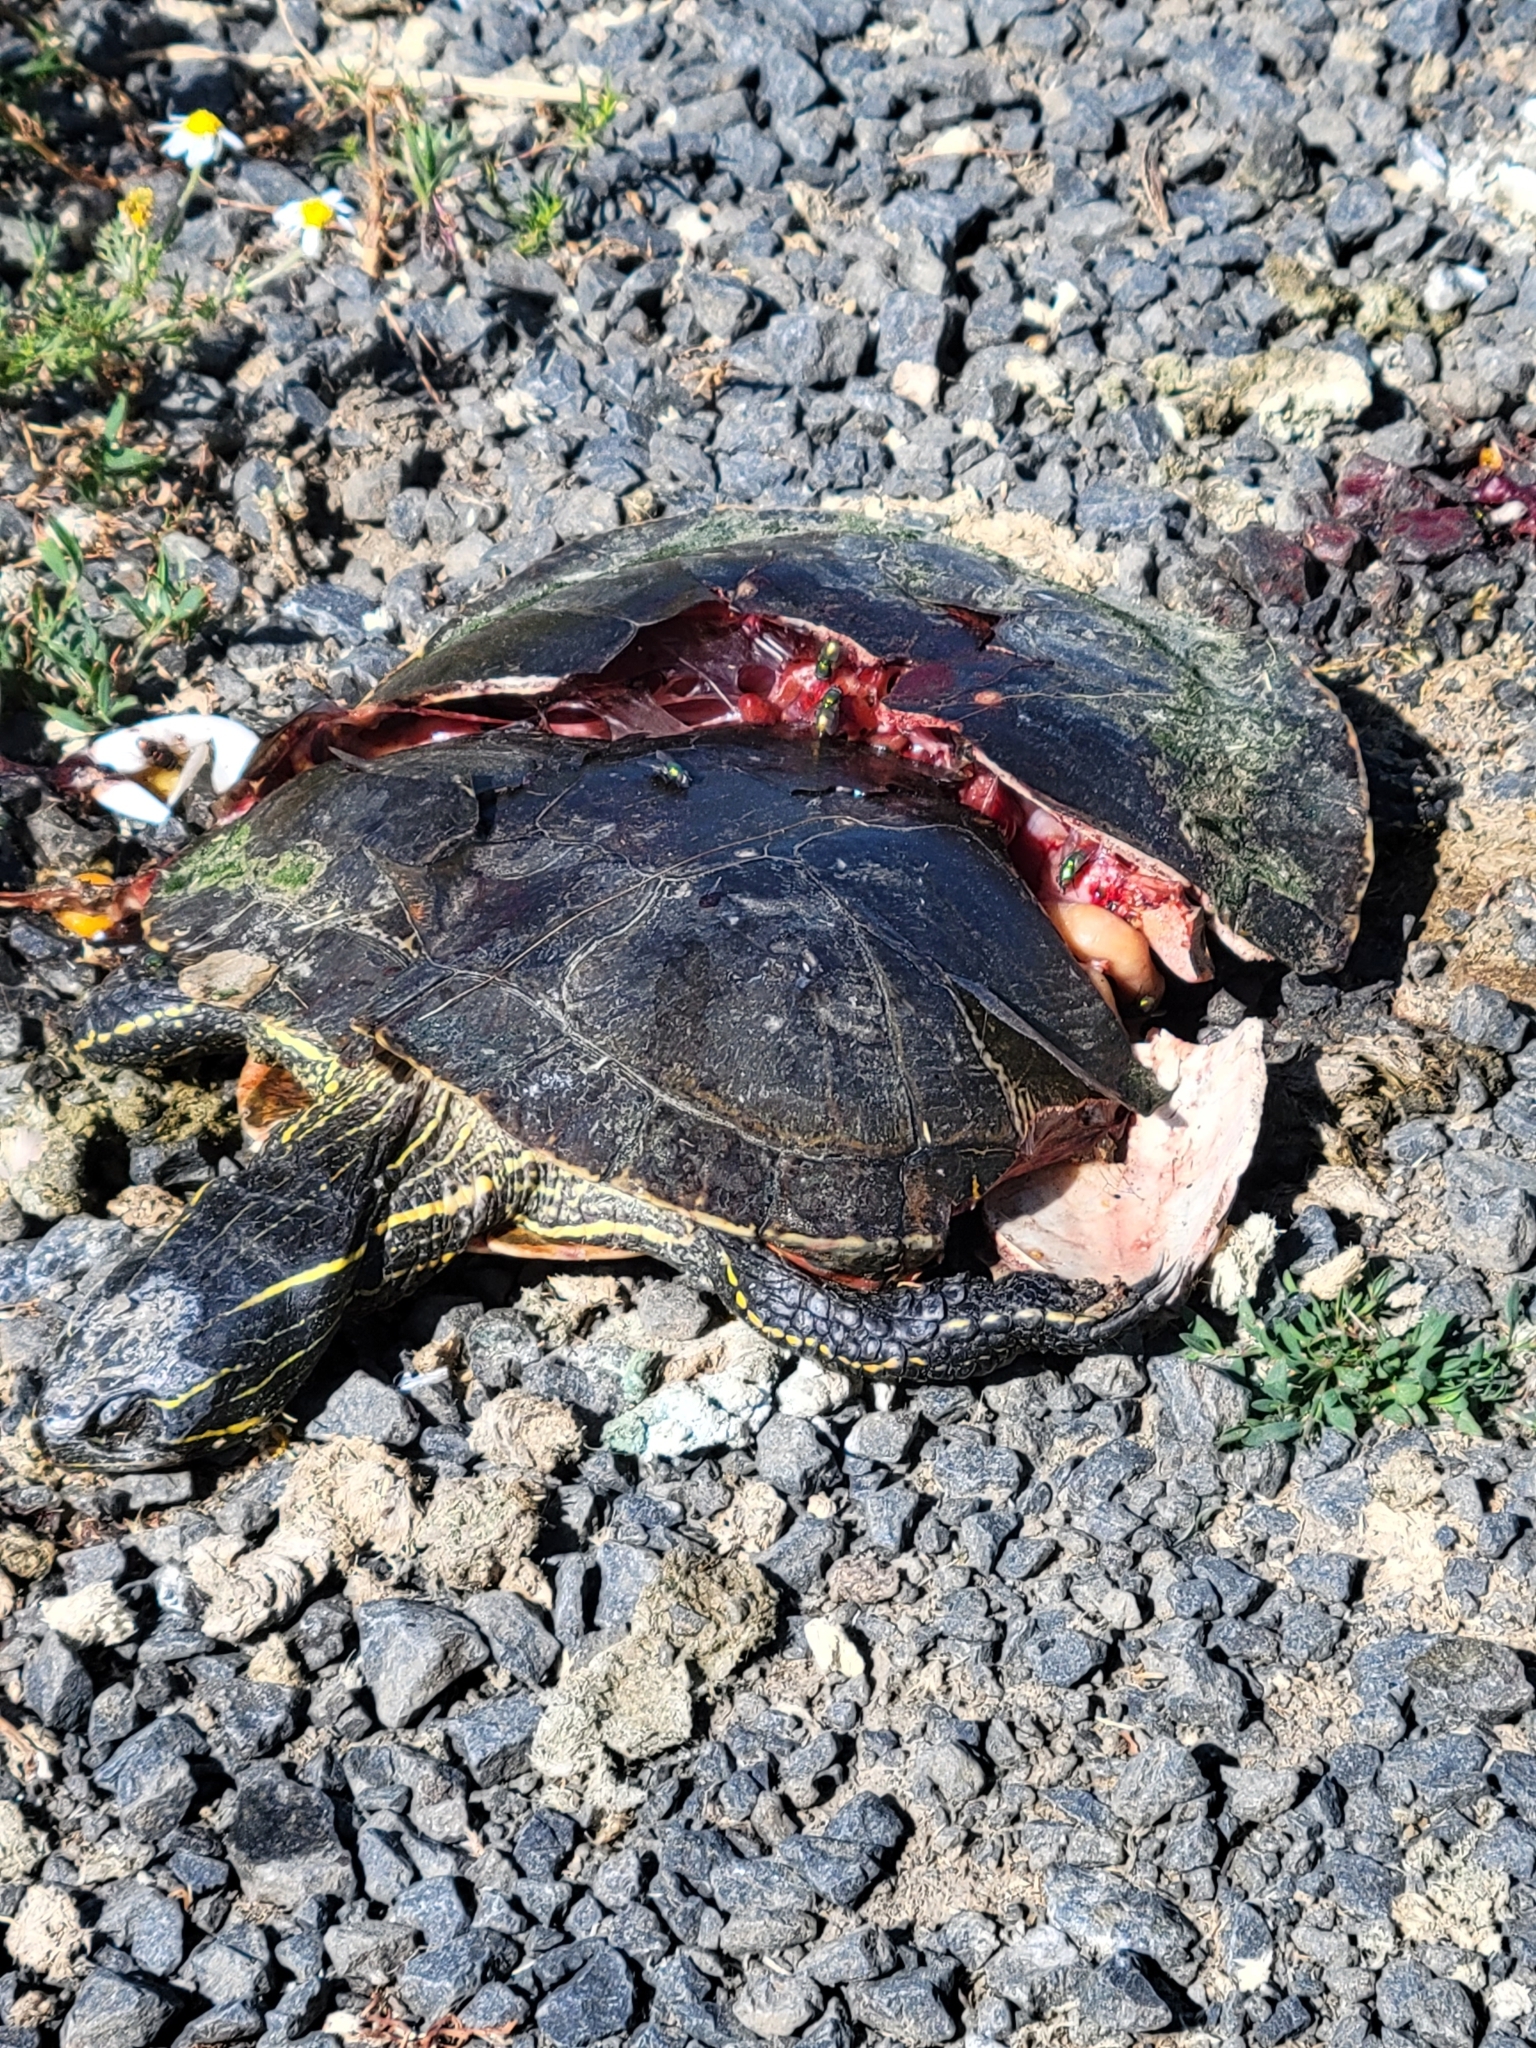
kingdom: Animalia
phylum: Chordata
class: Testudines
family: Emydidae
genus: Chrysemys
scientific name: Chrysemys picta
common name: Painted turtle
